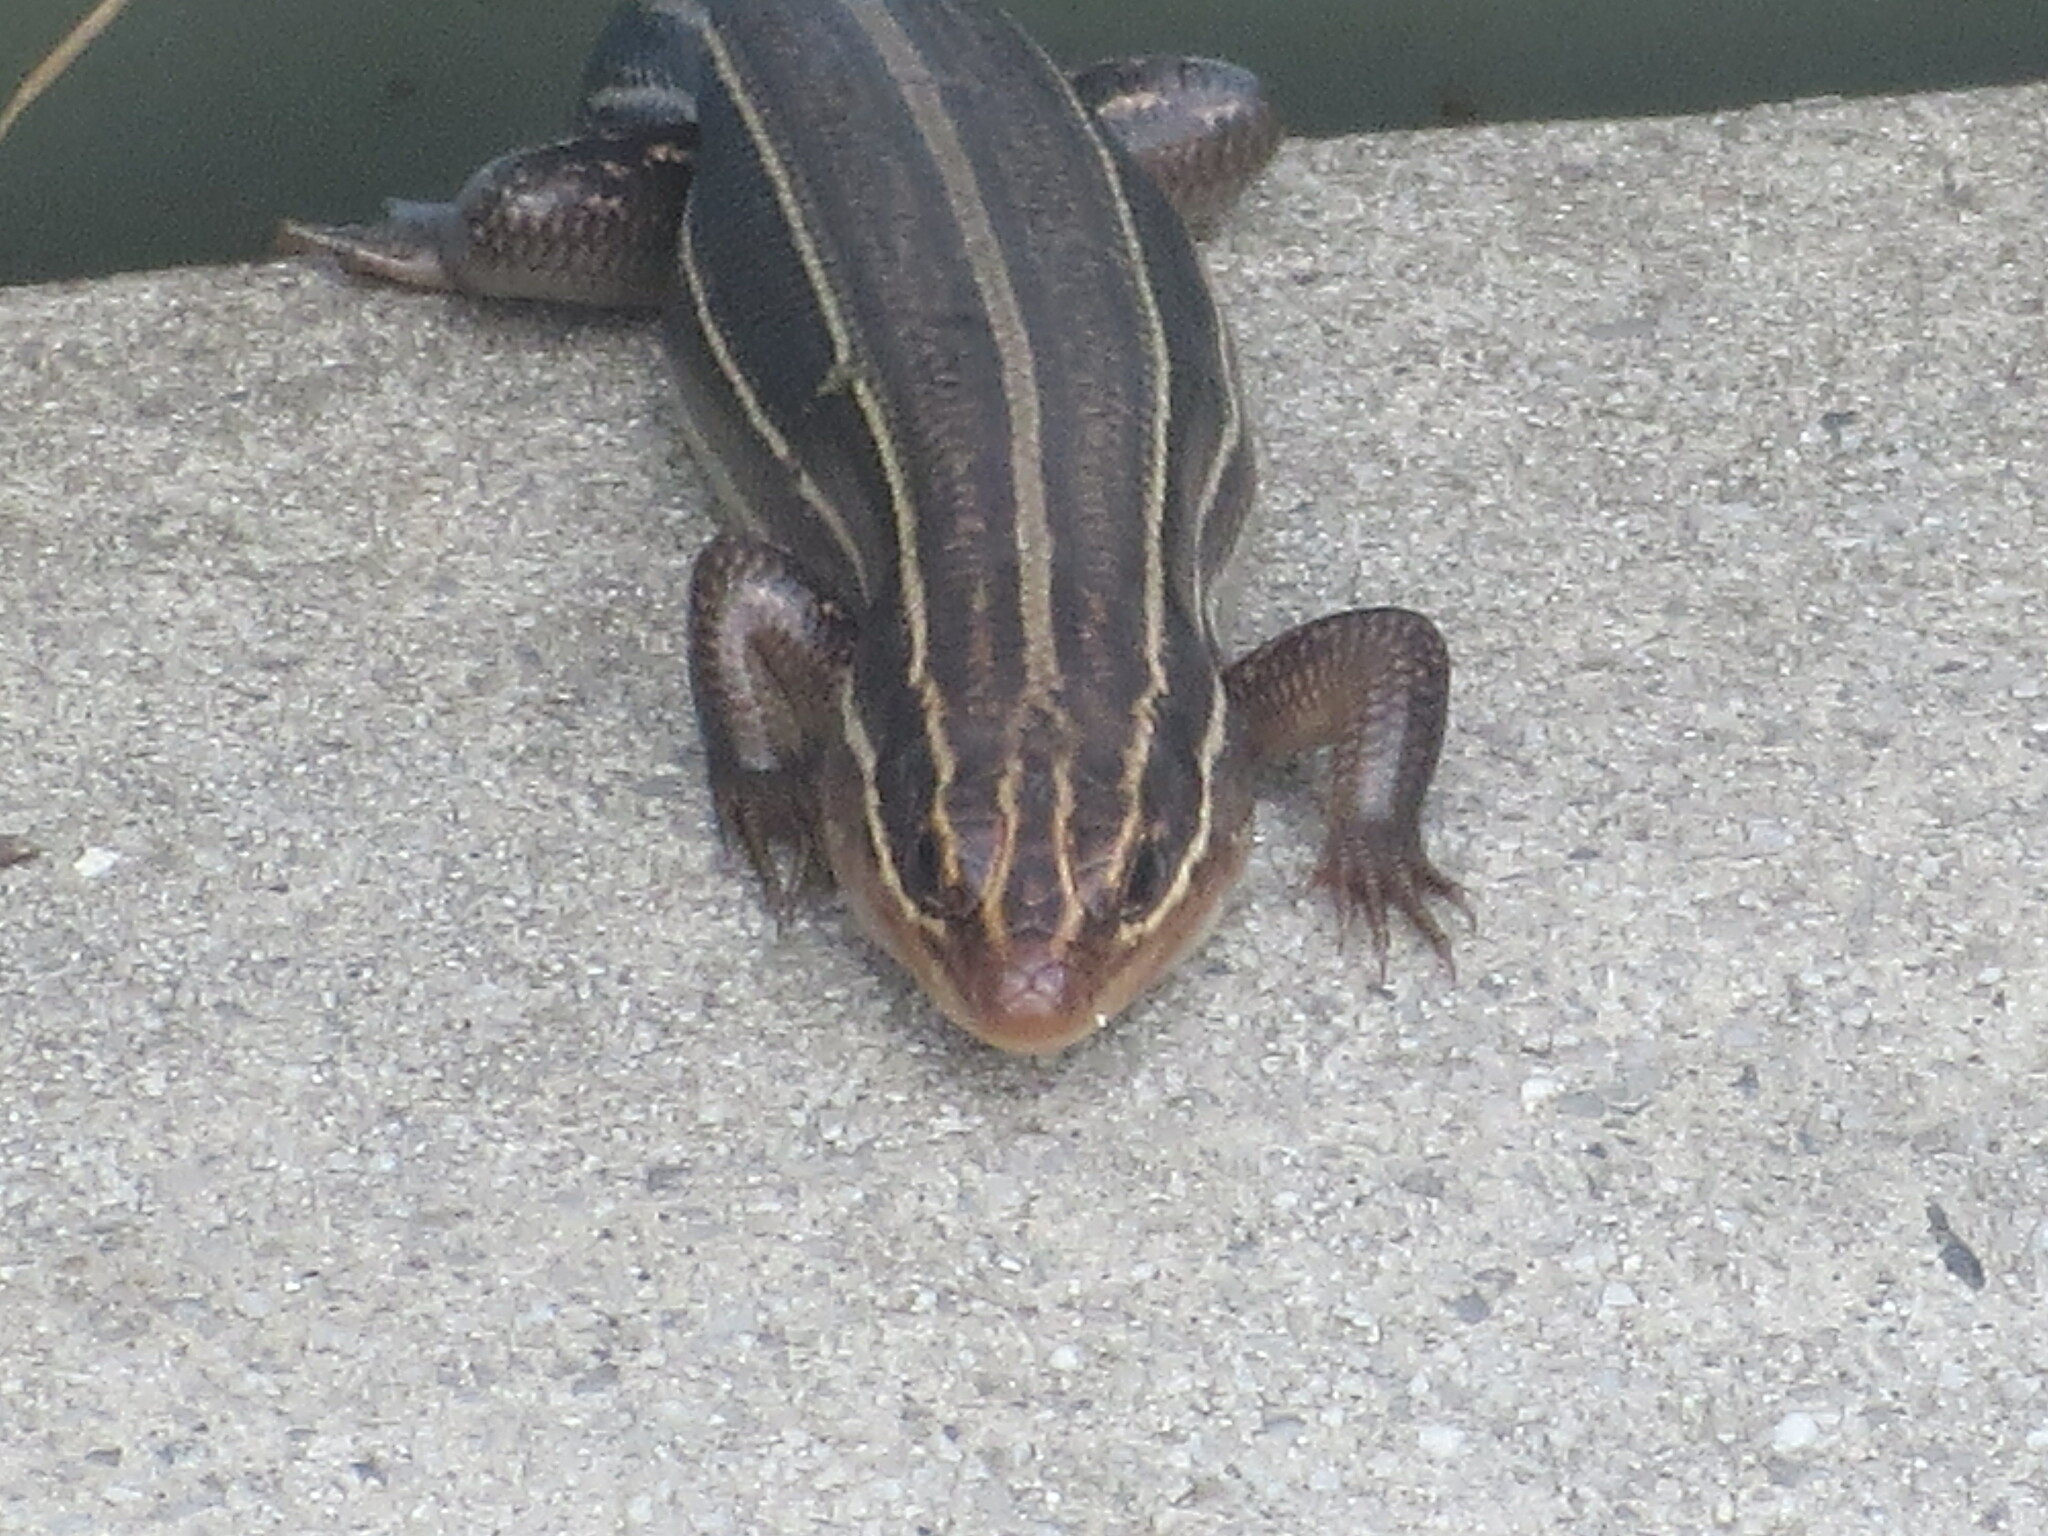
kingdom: Animalia
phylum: Chordata
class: Squamata
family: Scincidae
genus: Plestiodon
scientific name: Plestiodon laticeps
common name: Broadhead skink
